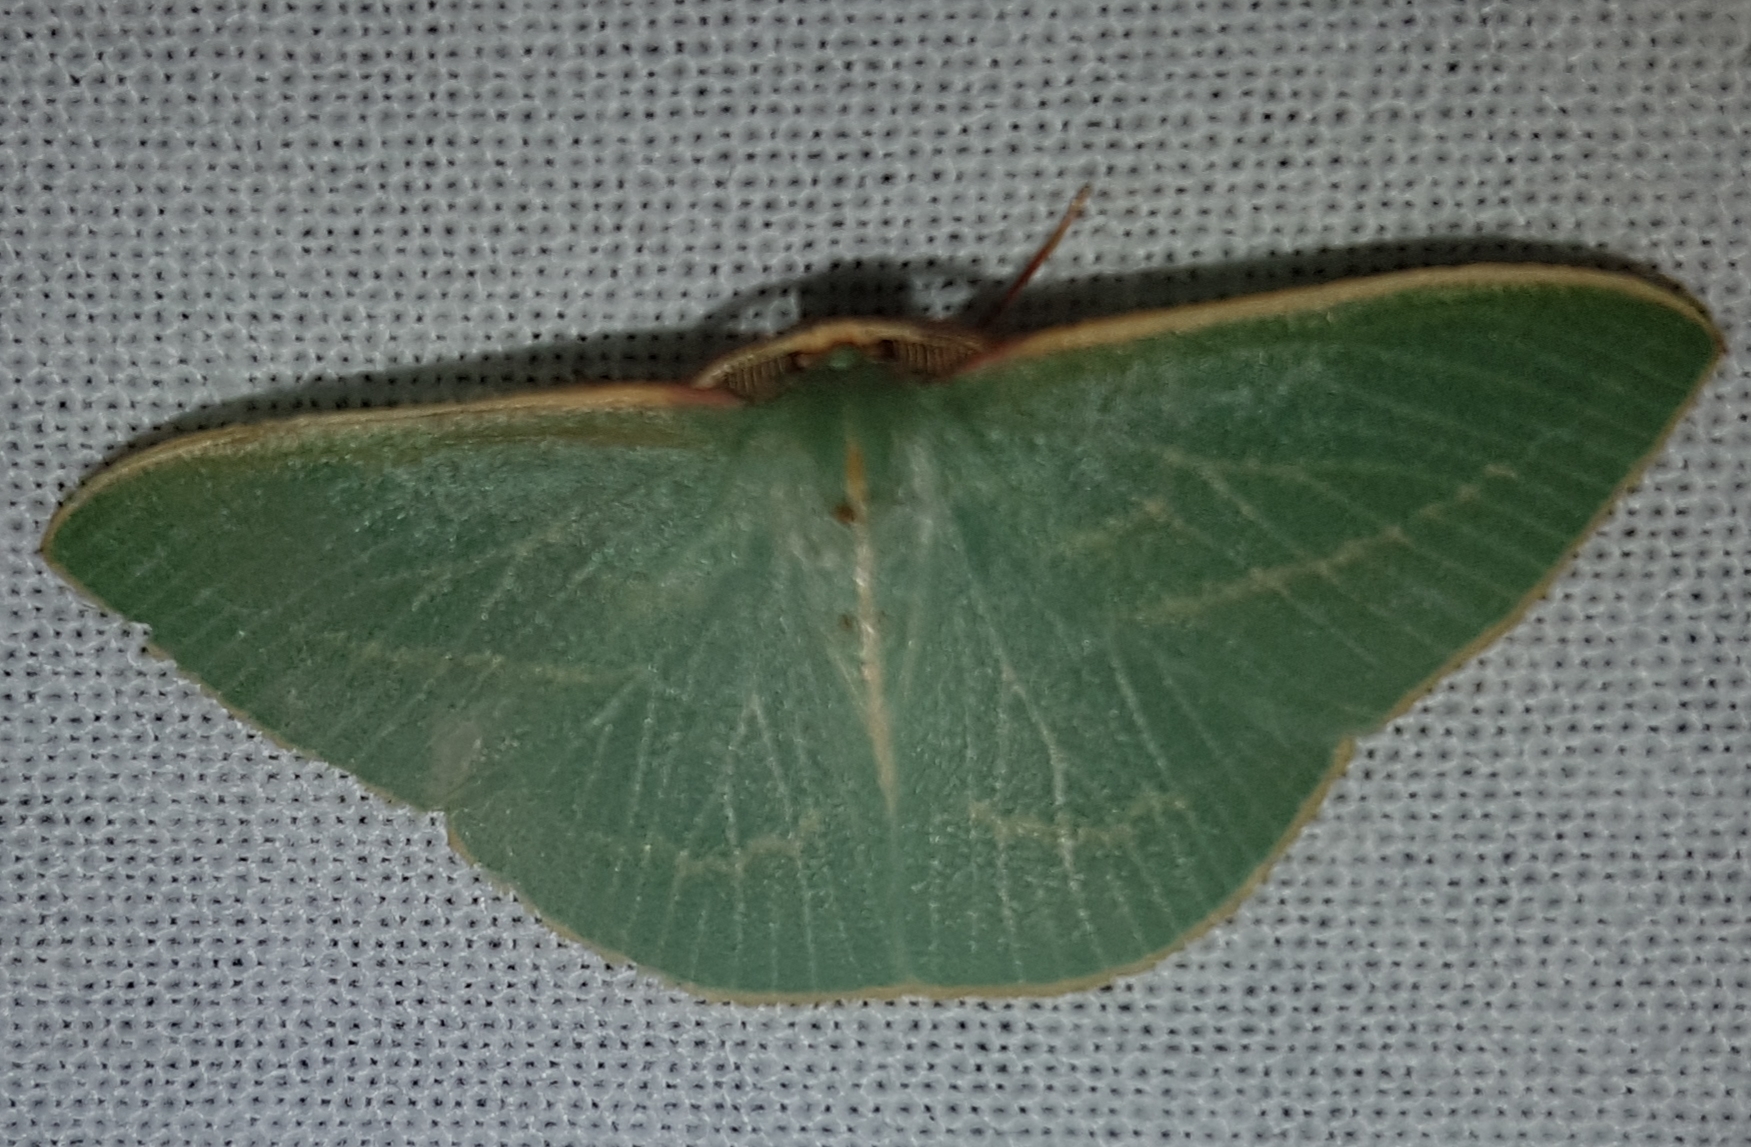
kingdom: Animalia
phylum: Arthropoda
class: Insecta
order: Lepidoptera
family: Geometridae
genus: Chlorocoma
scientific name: Chlorocoma carenaria
